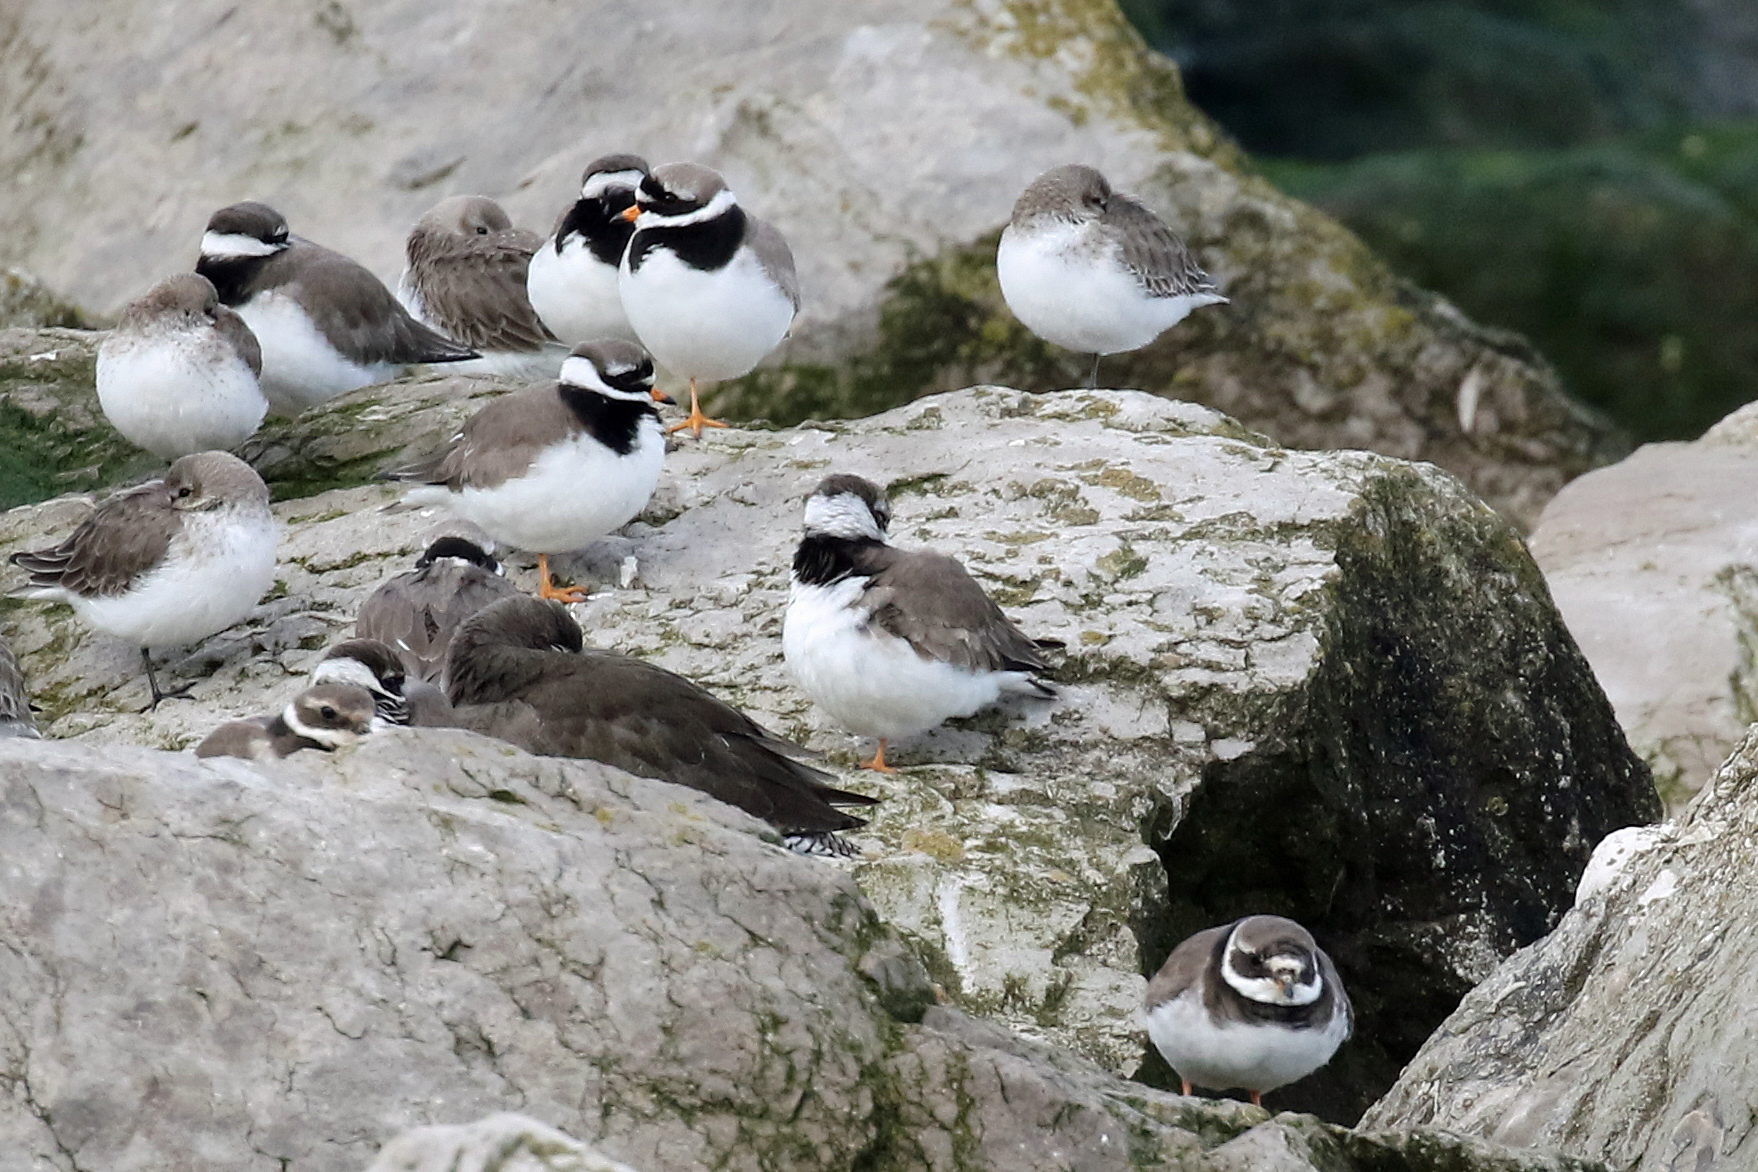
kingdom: Animalia
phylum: Chordata
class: Aves
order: Charadriiformes
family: Charadriidae
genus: Charadrius
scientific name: Charadrius hiaticula
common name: Common ringed plover
